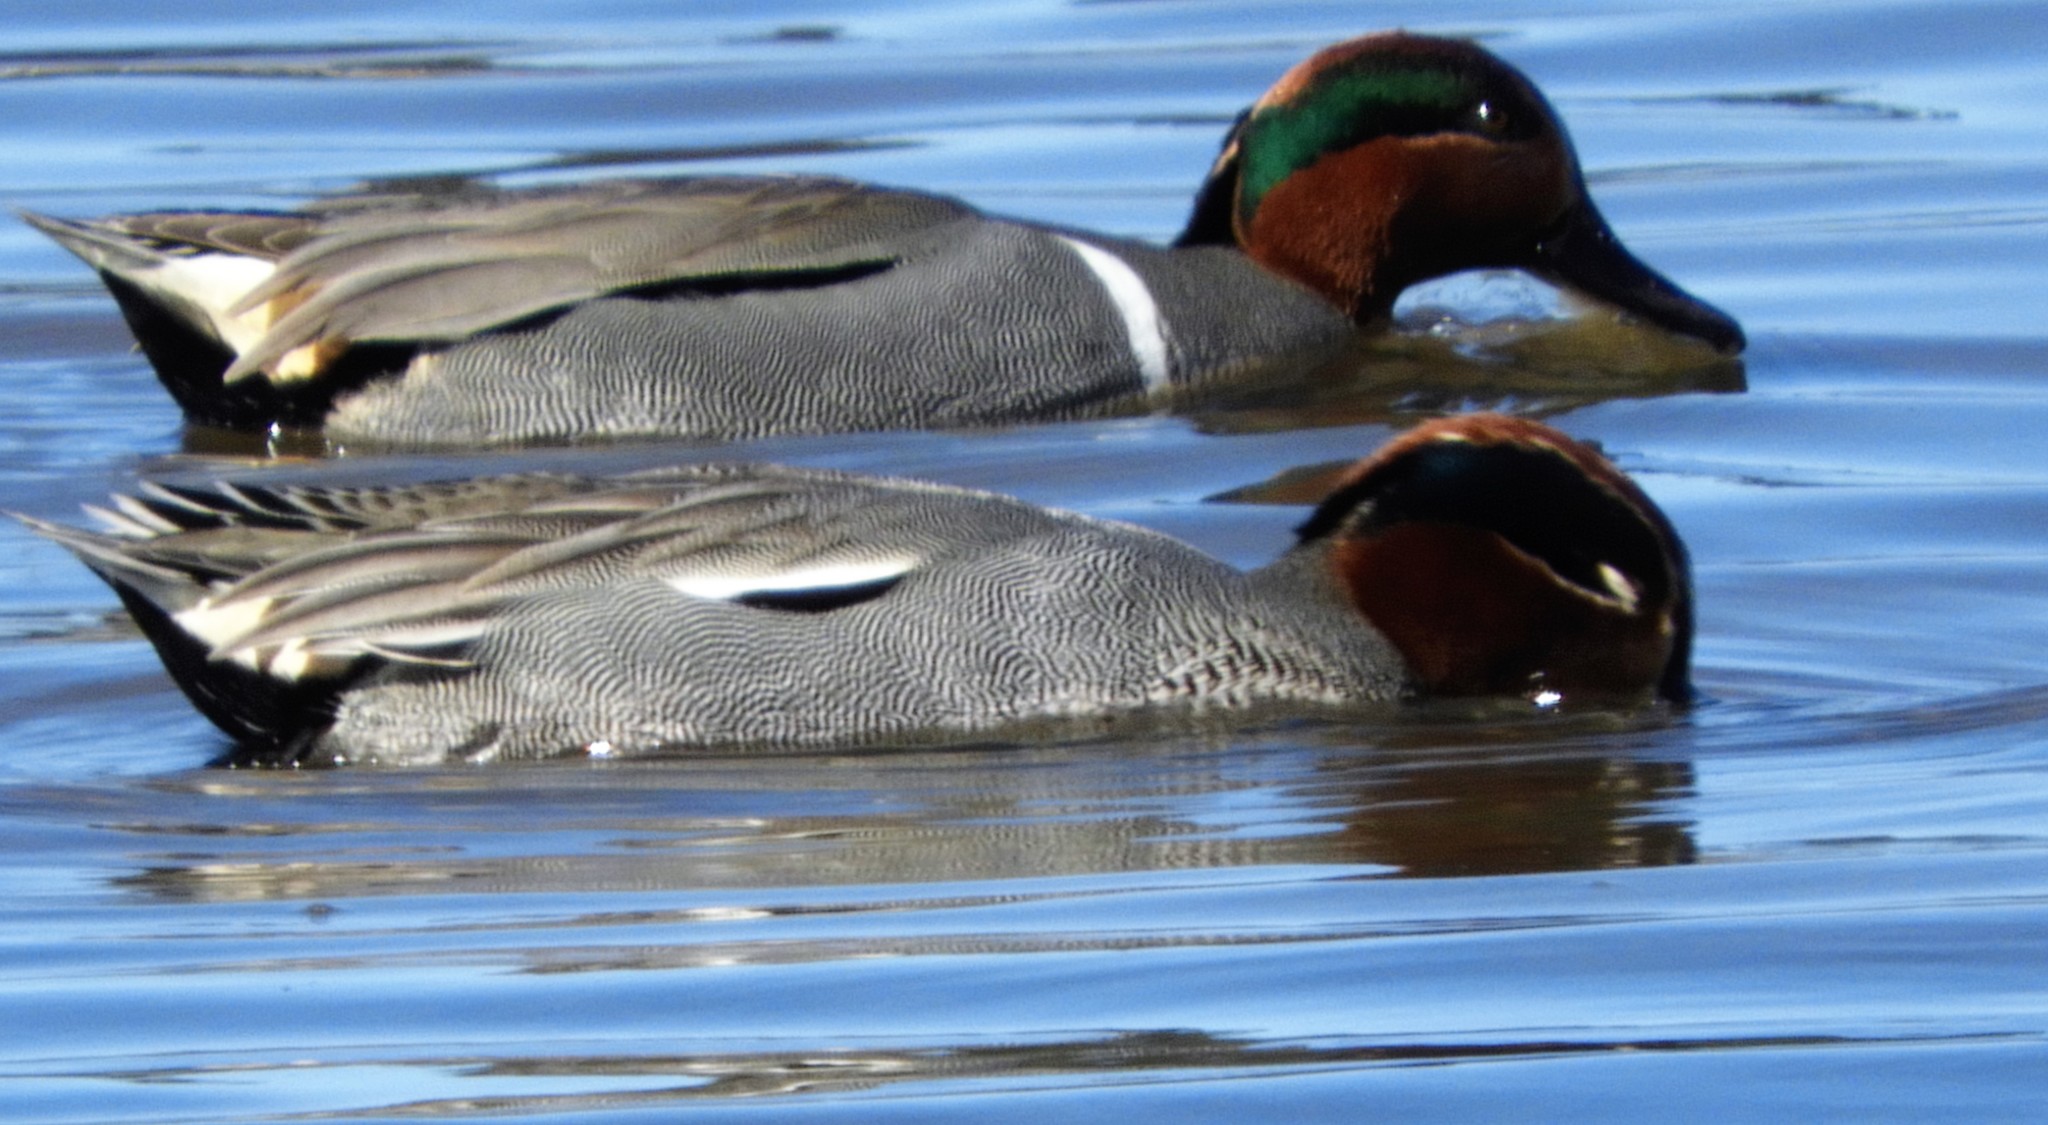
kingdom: Animalia
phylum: Chordata
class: Aves
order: Anseriformes
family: Anatidae
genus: Anas
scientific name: Anas crecca
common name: Eurasian teal
